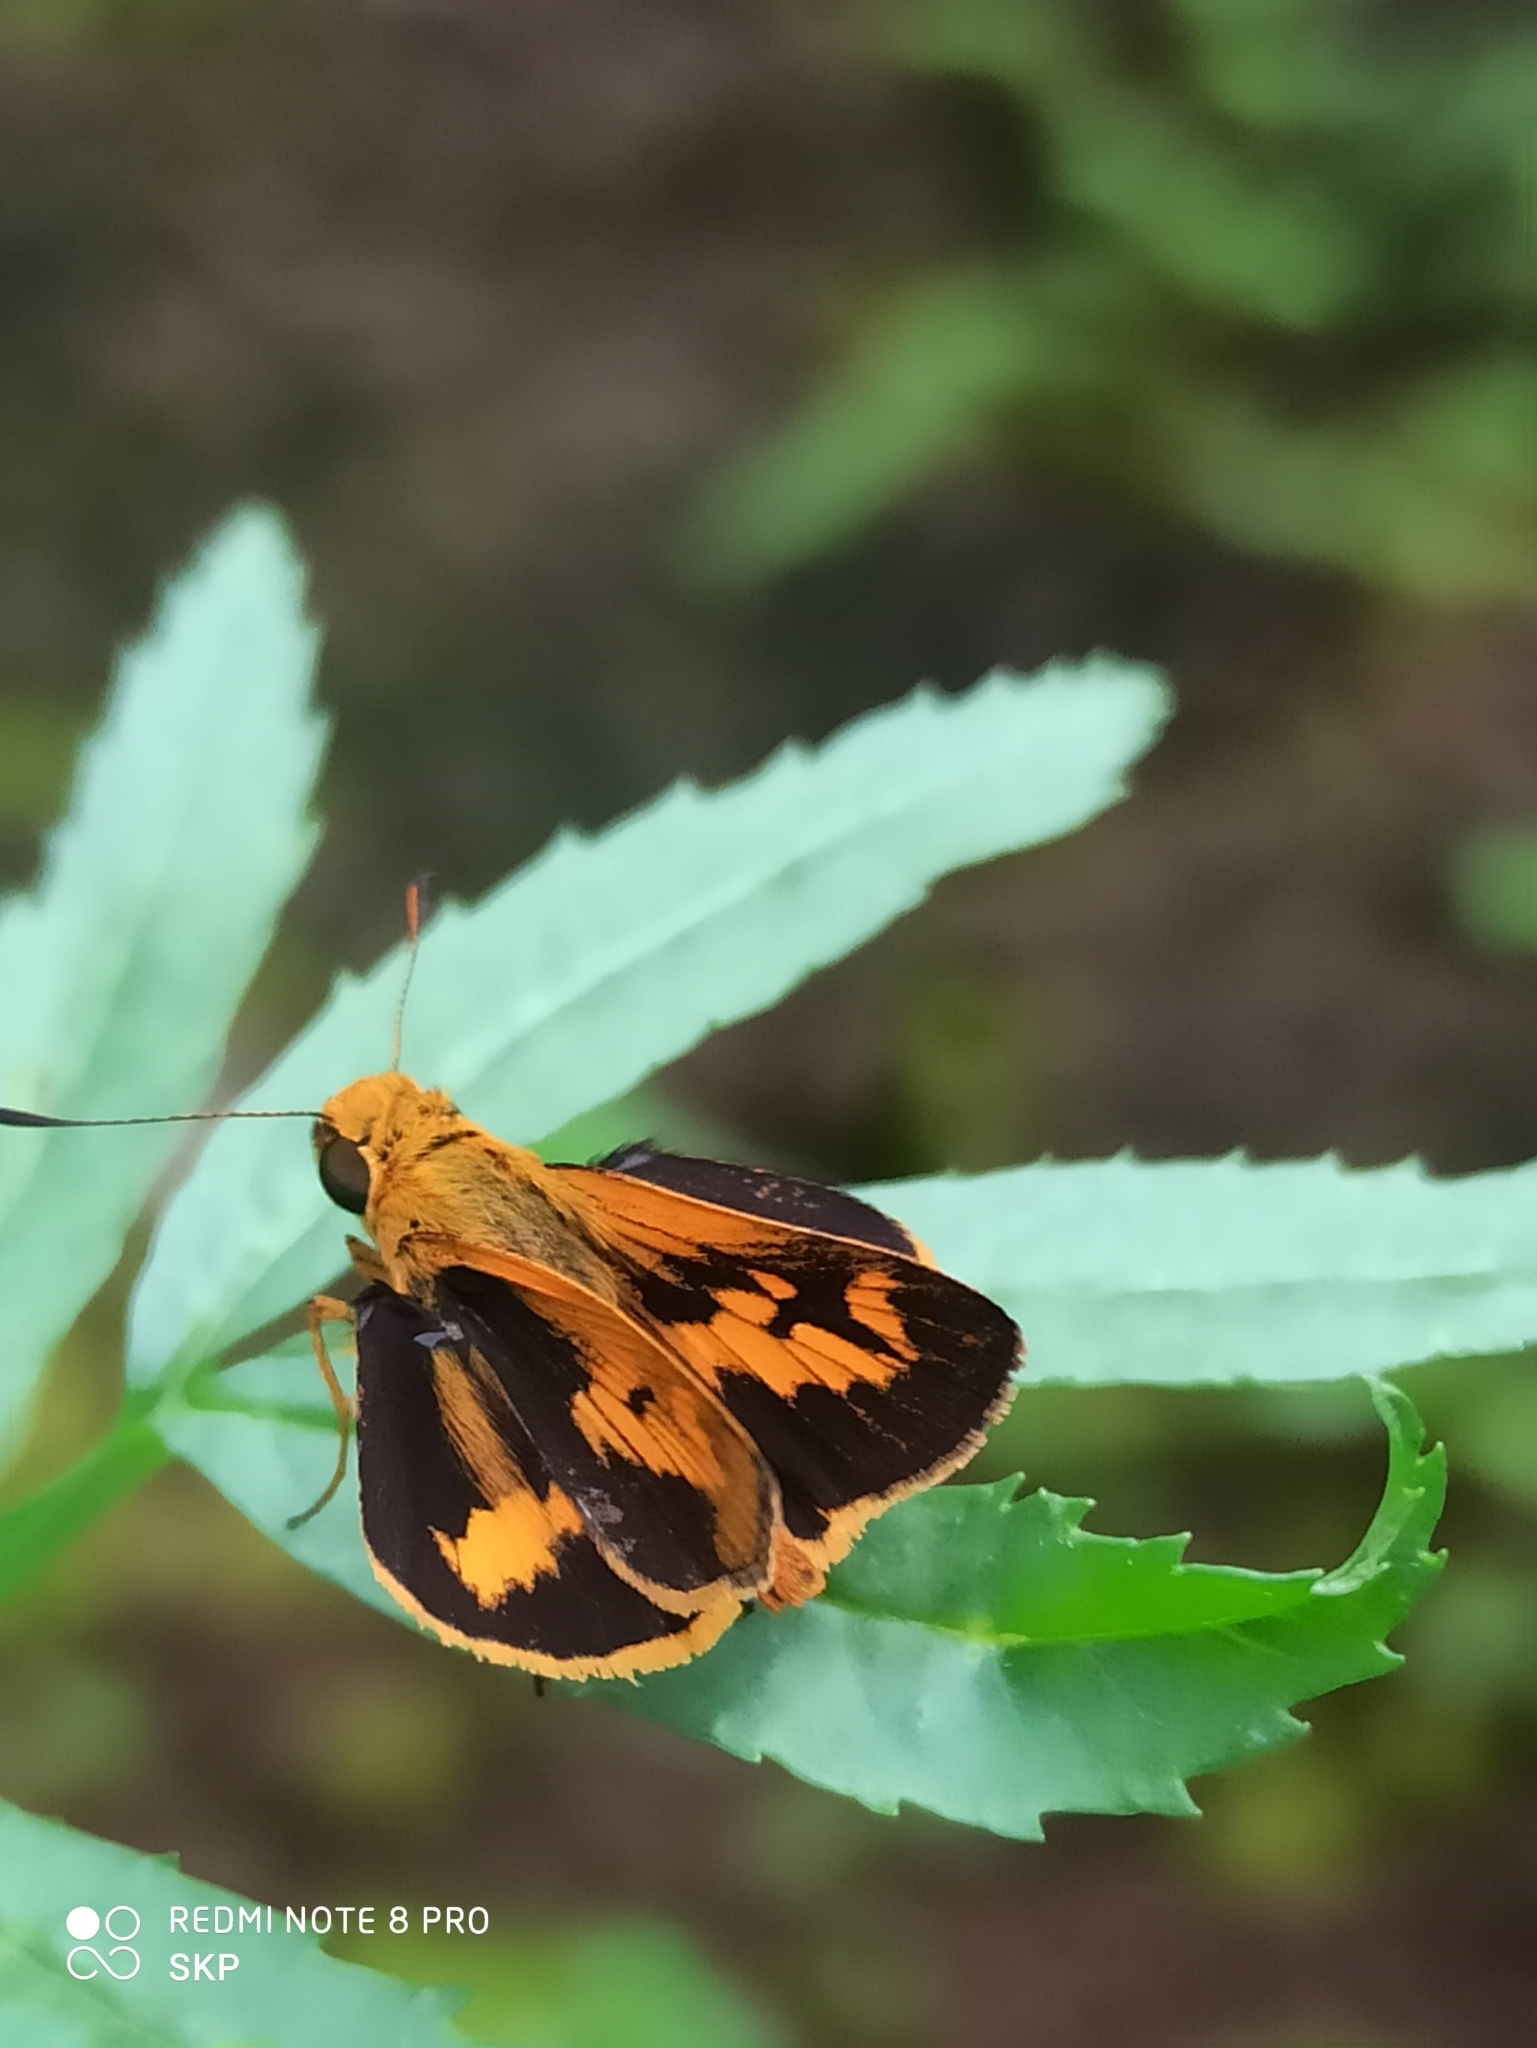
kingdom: Animalia
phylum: Arthropoda
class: Insecta
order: Lepidoptera
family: Hesperiidae
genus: Oriens
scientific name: Oriens goloides
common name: Smaller dartlet
